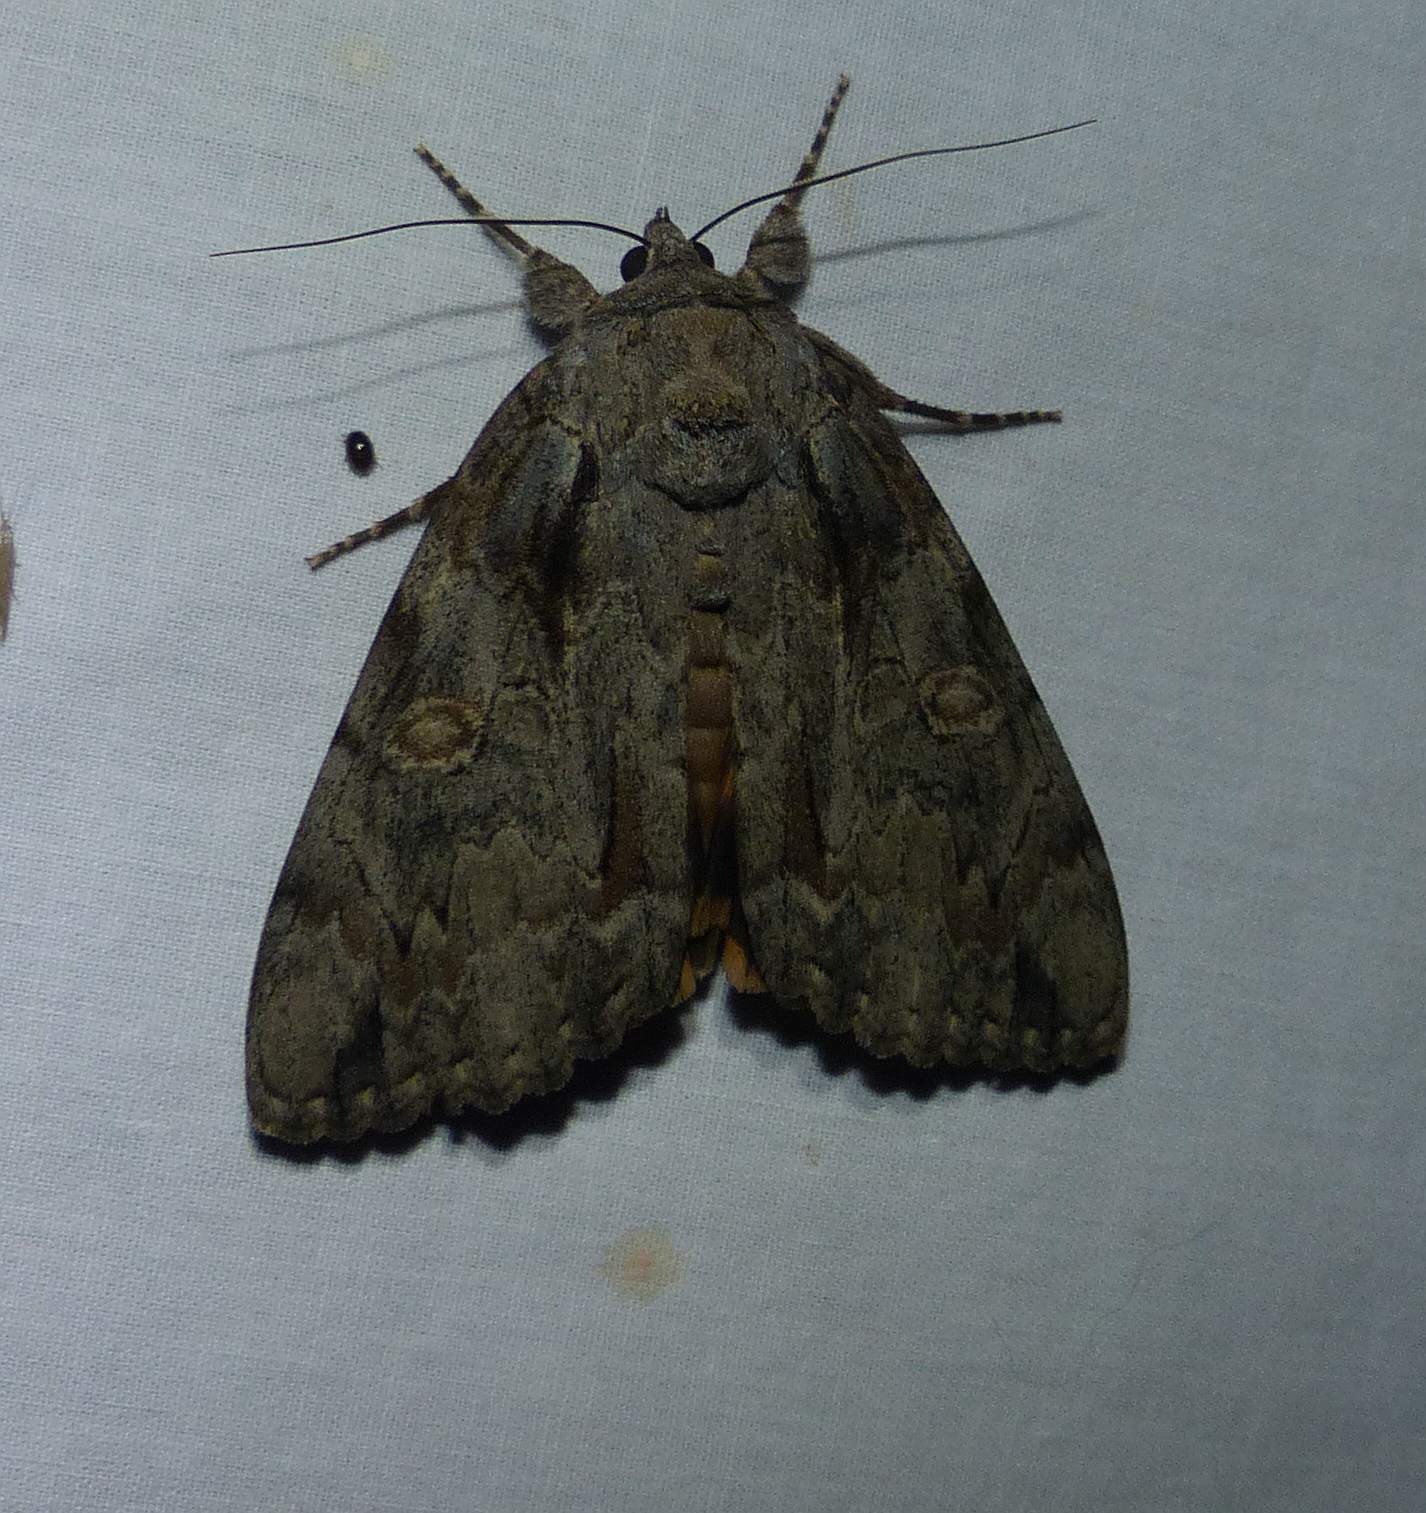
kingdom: Animalia
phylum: Arthropoda
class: Insecta
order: Lepidoptera
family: Erebidae
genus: Catocala
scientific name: Catocala subnata
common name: Youthful underwing
